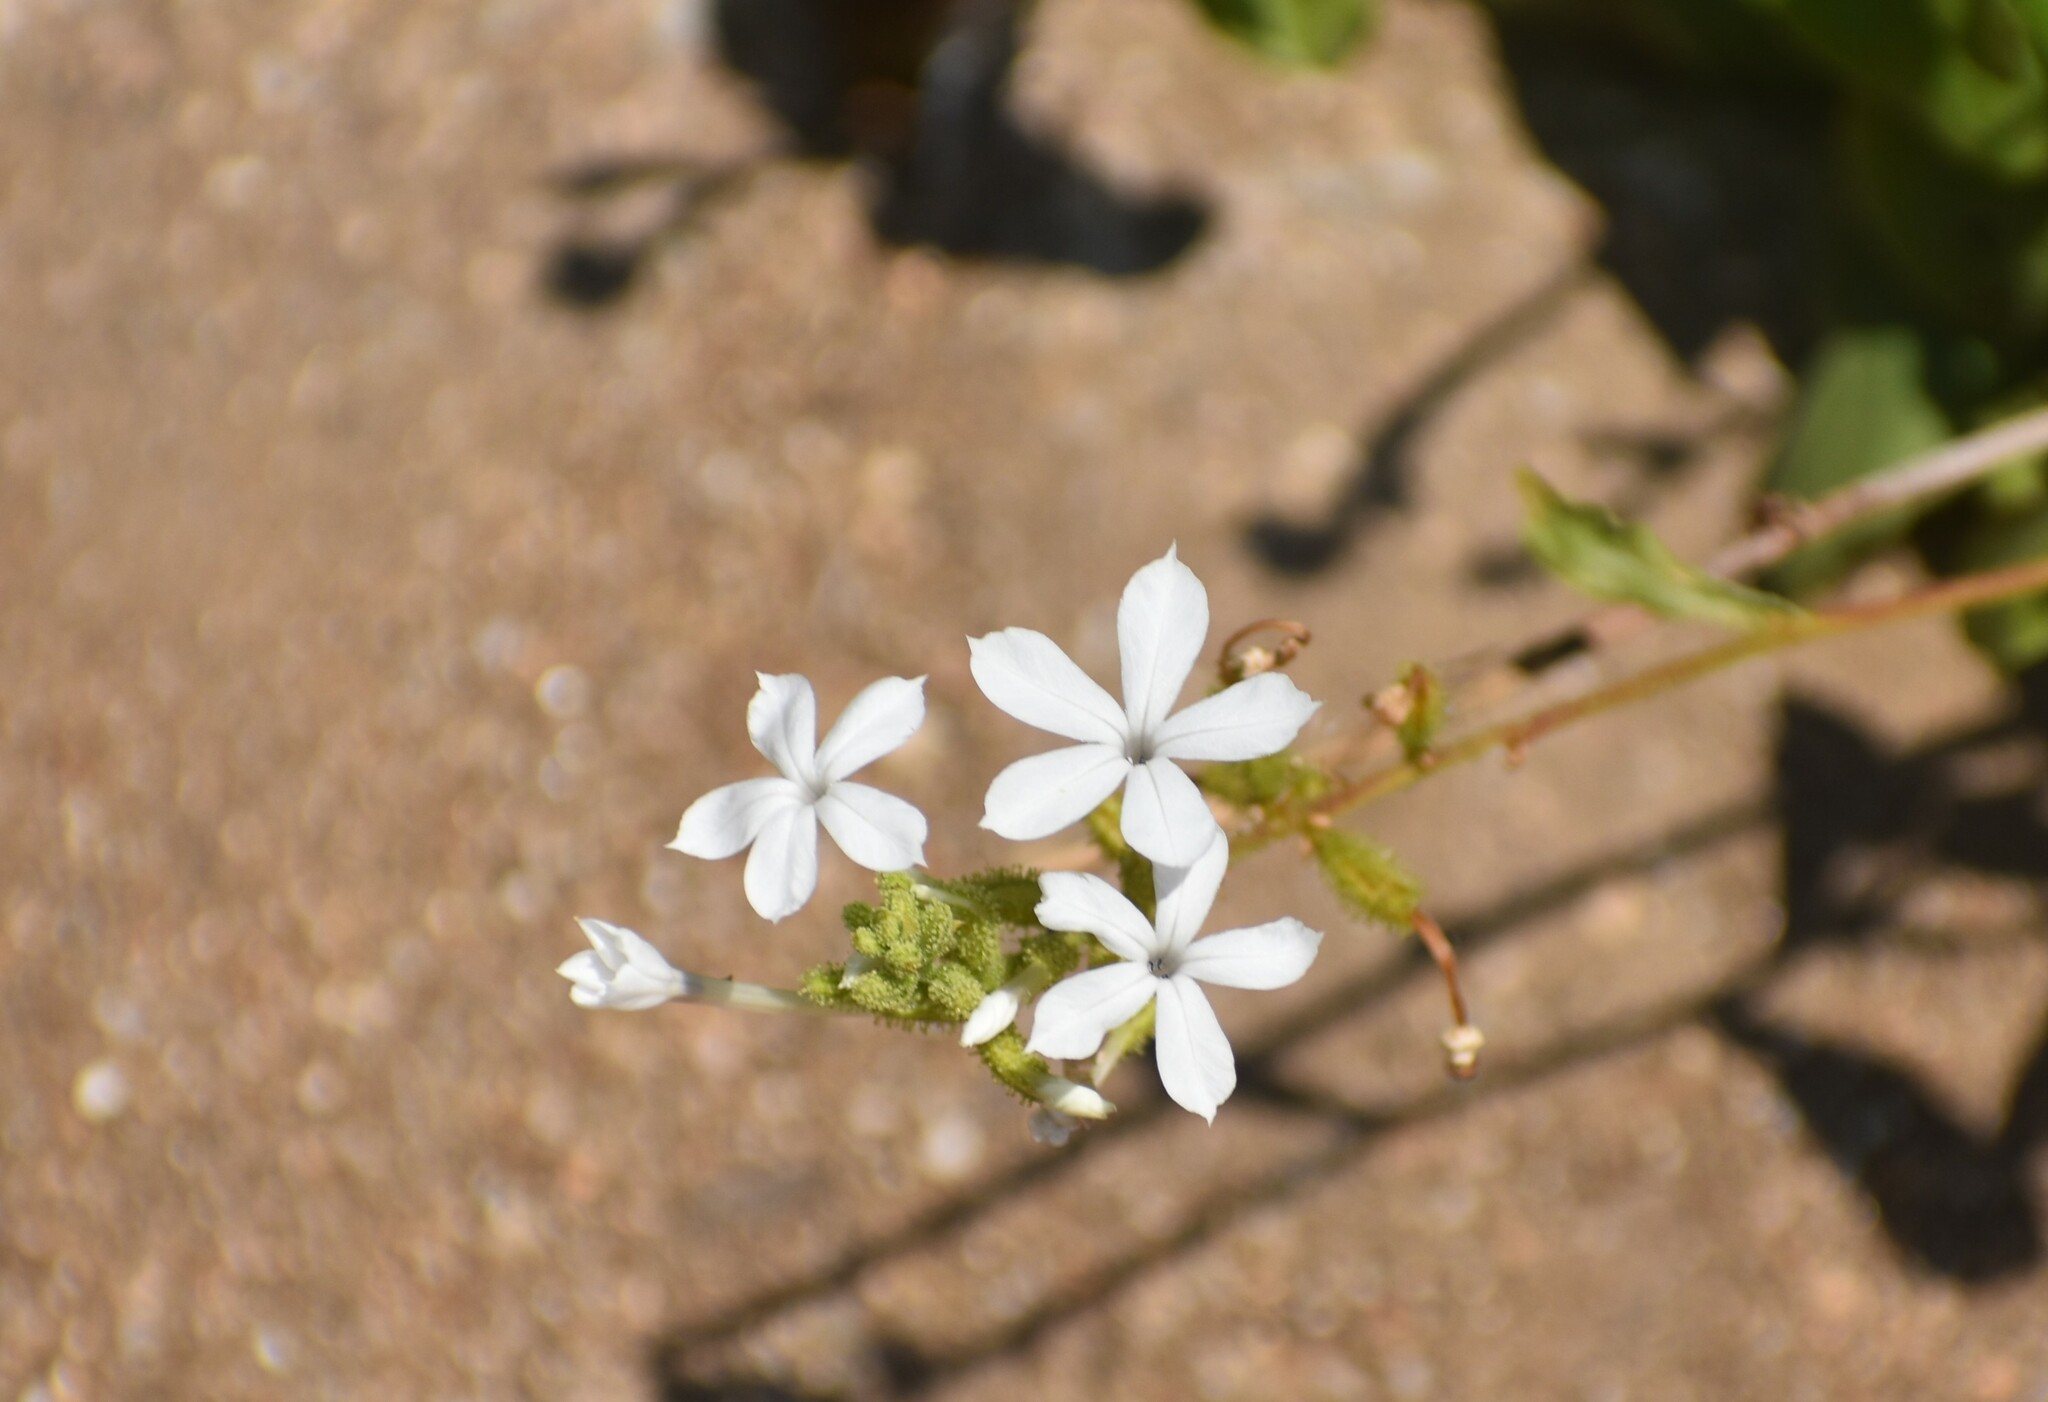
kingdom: Plantae
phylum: Tracheophyta
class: Magnoliopsida
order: Caryophyllales
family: Plumbaginaceae
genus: Plumbago
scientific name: Plumbago zeylanica
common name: Doctorbush
